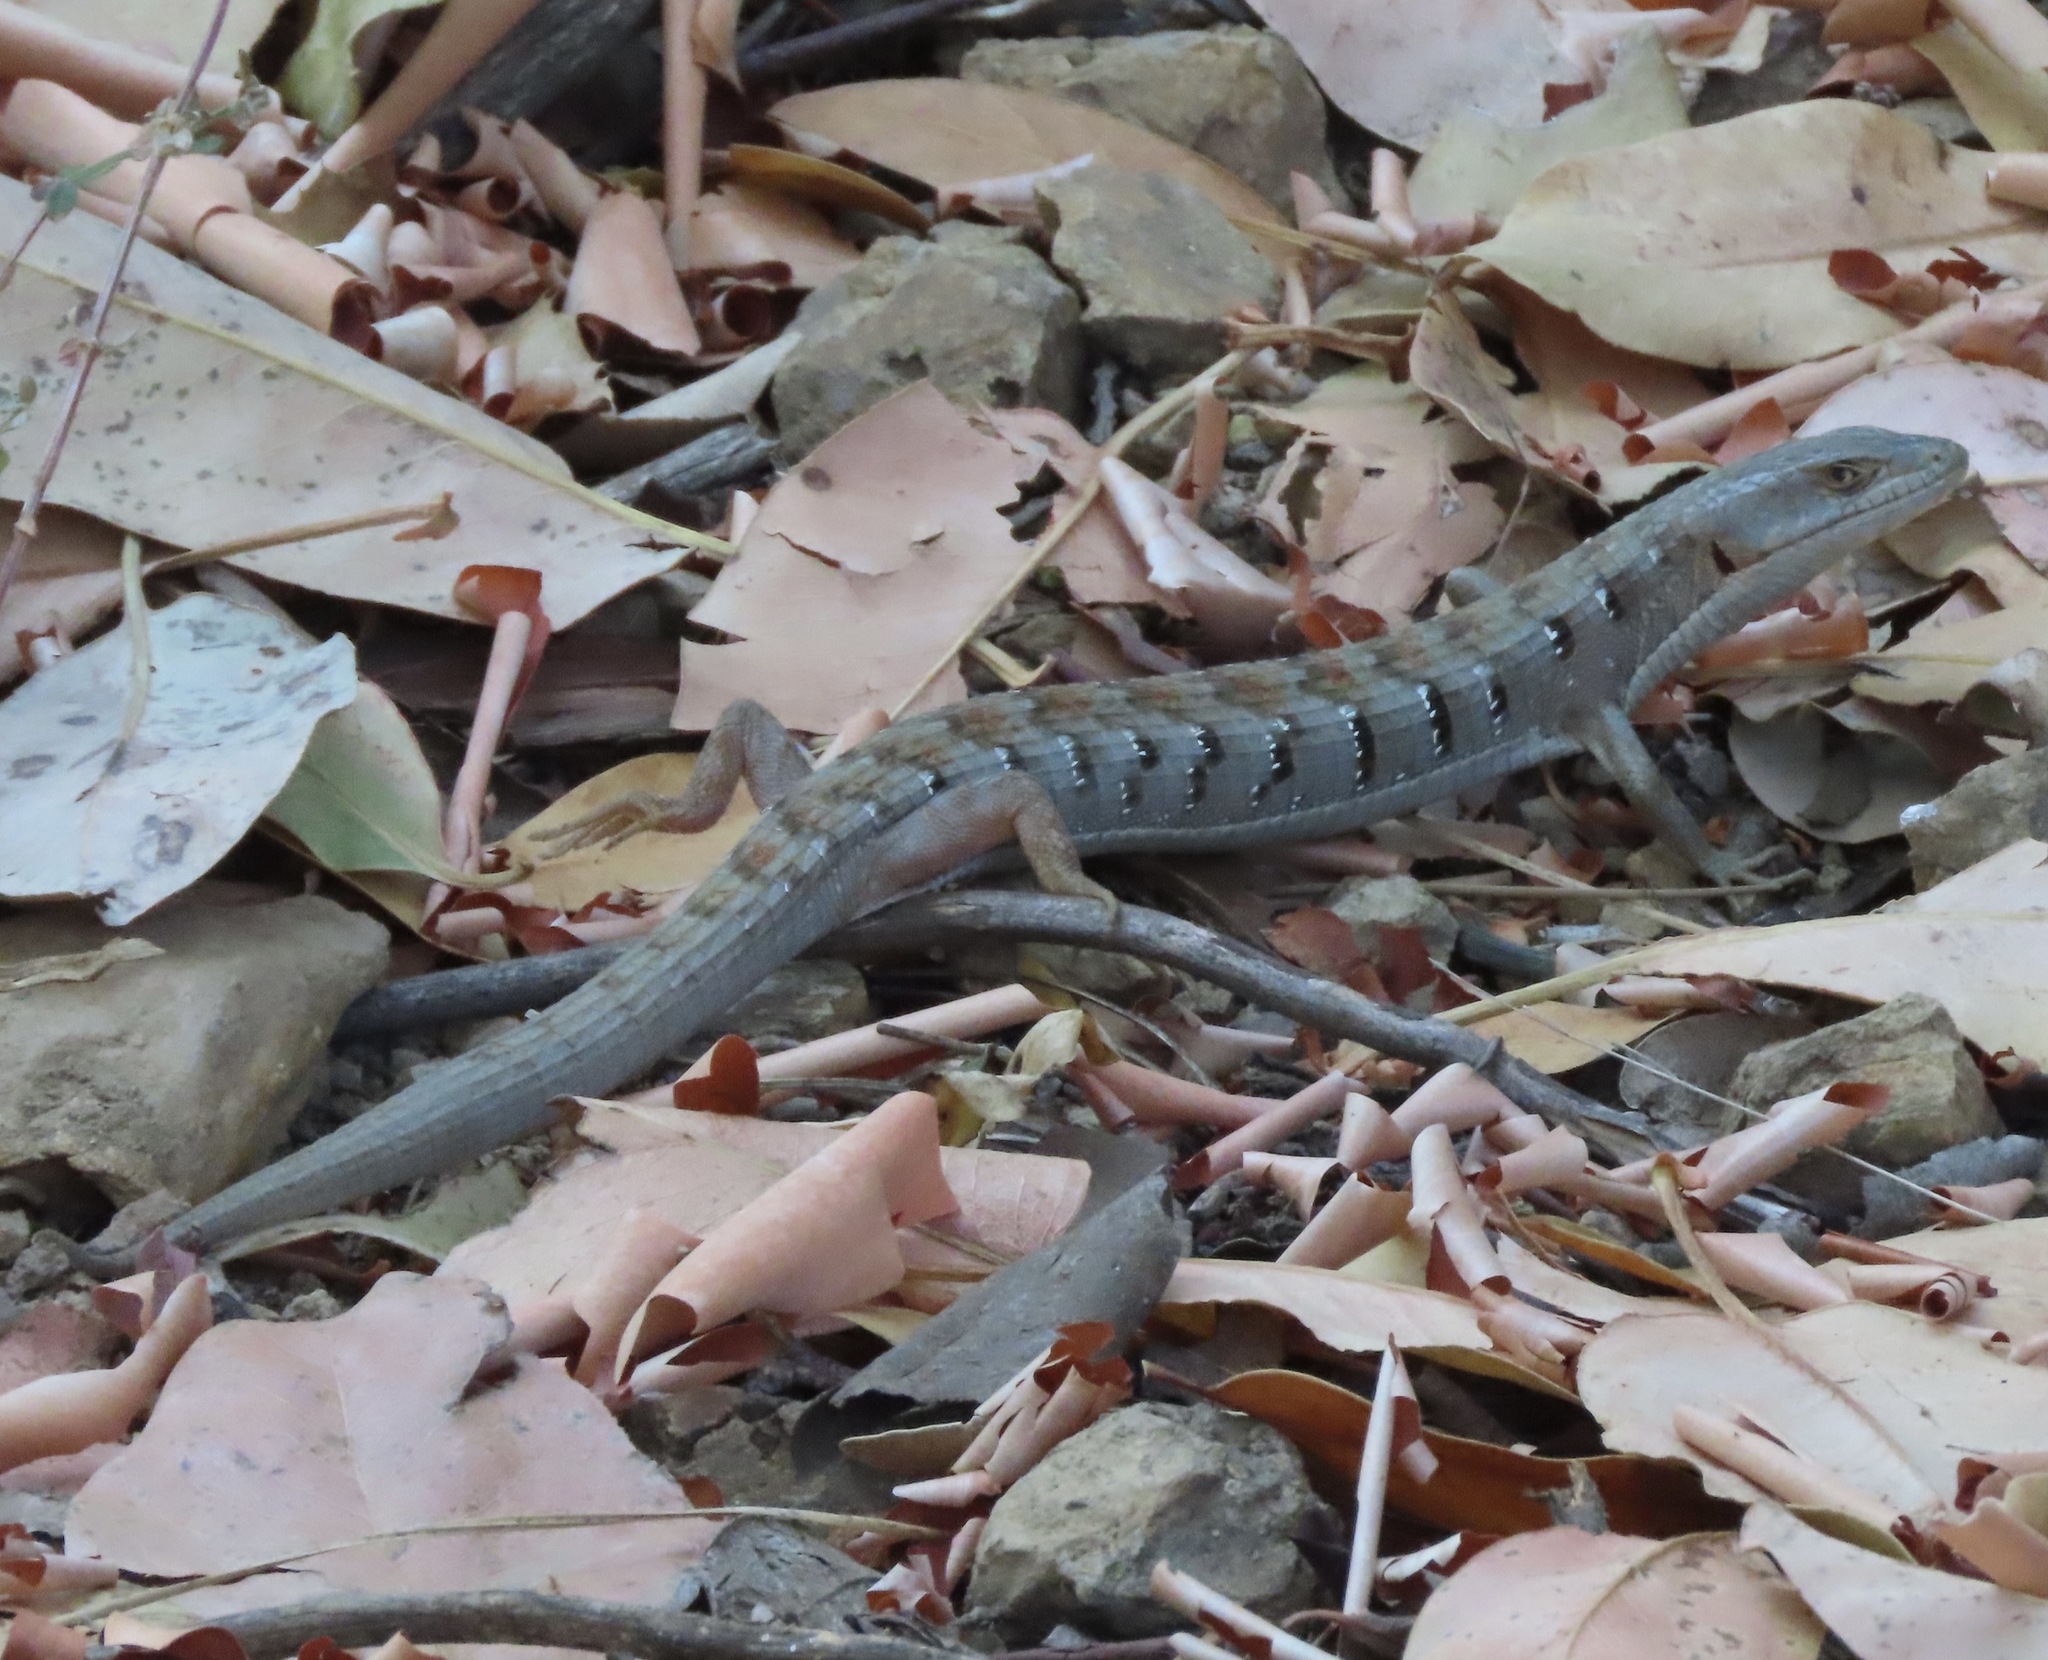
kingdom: Animalia
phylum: Chordata
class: Squamata
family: Anguidae
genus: Elgaria
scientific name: Elgaria multicarinata
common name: Southern alligator lizard
